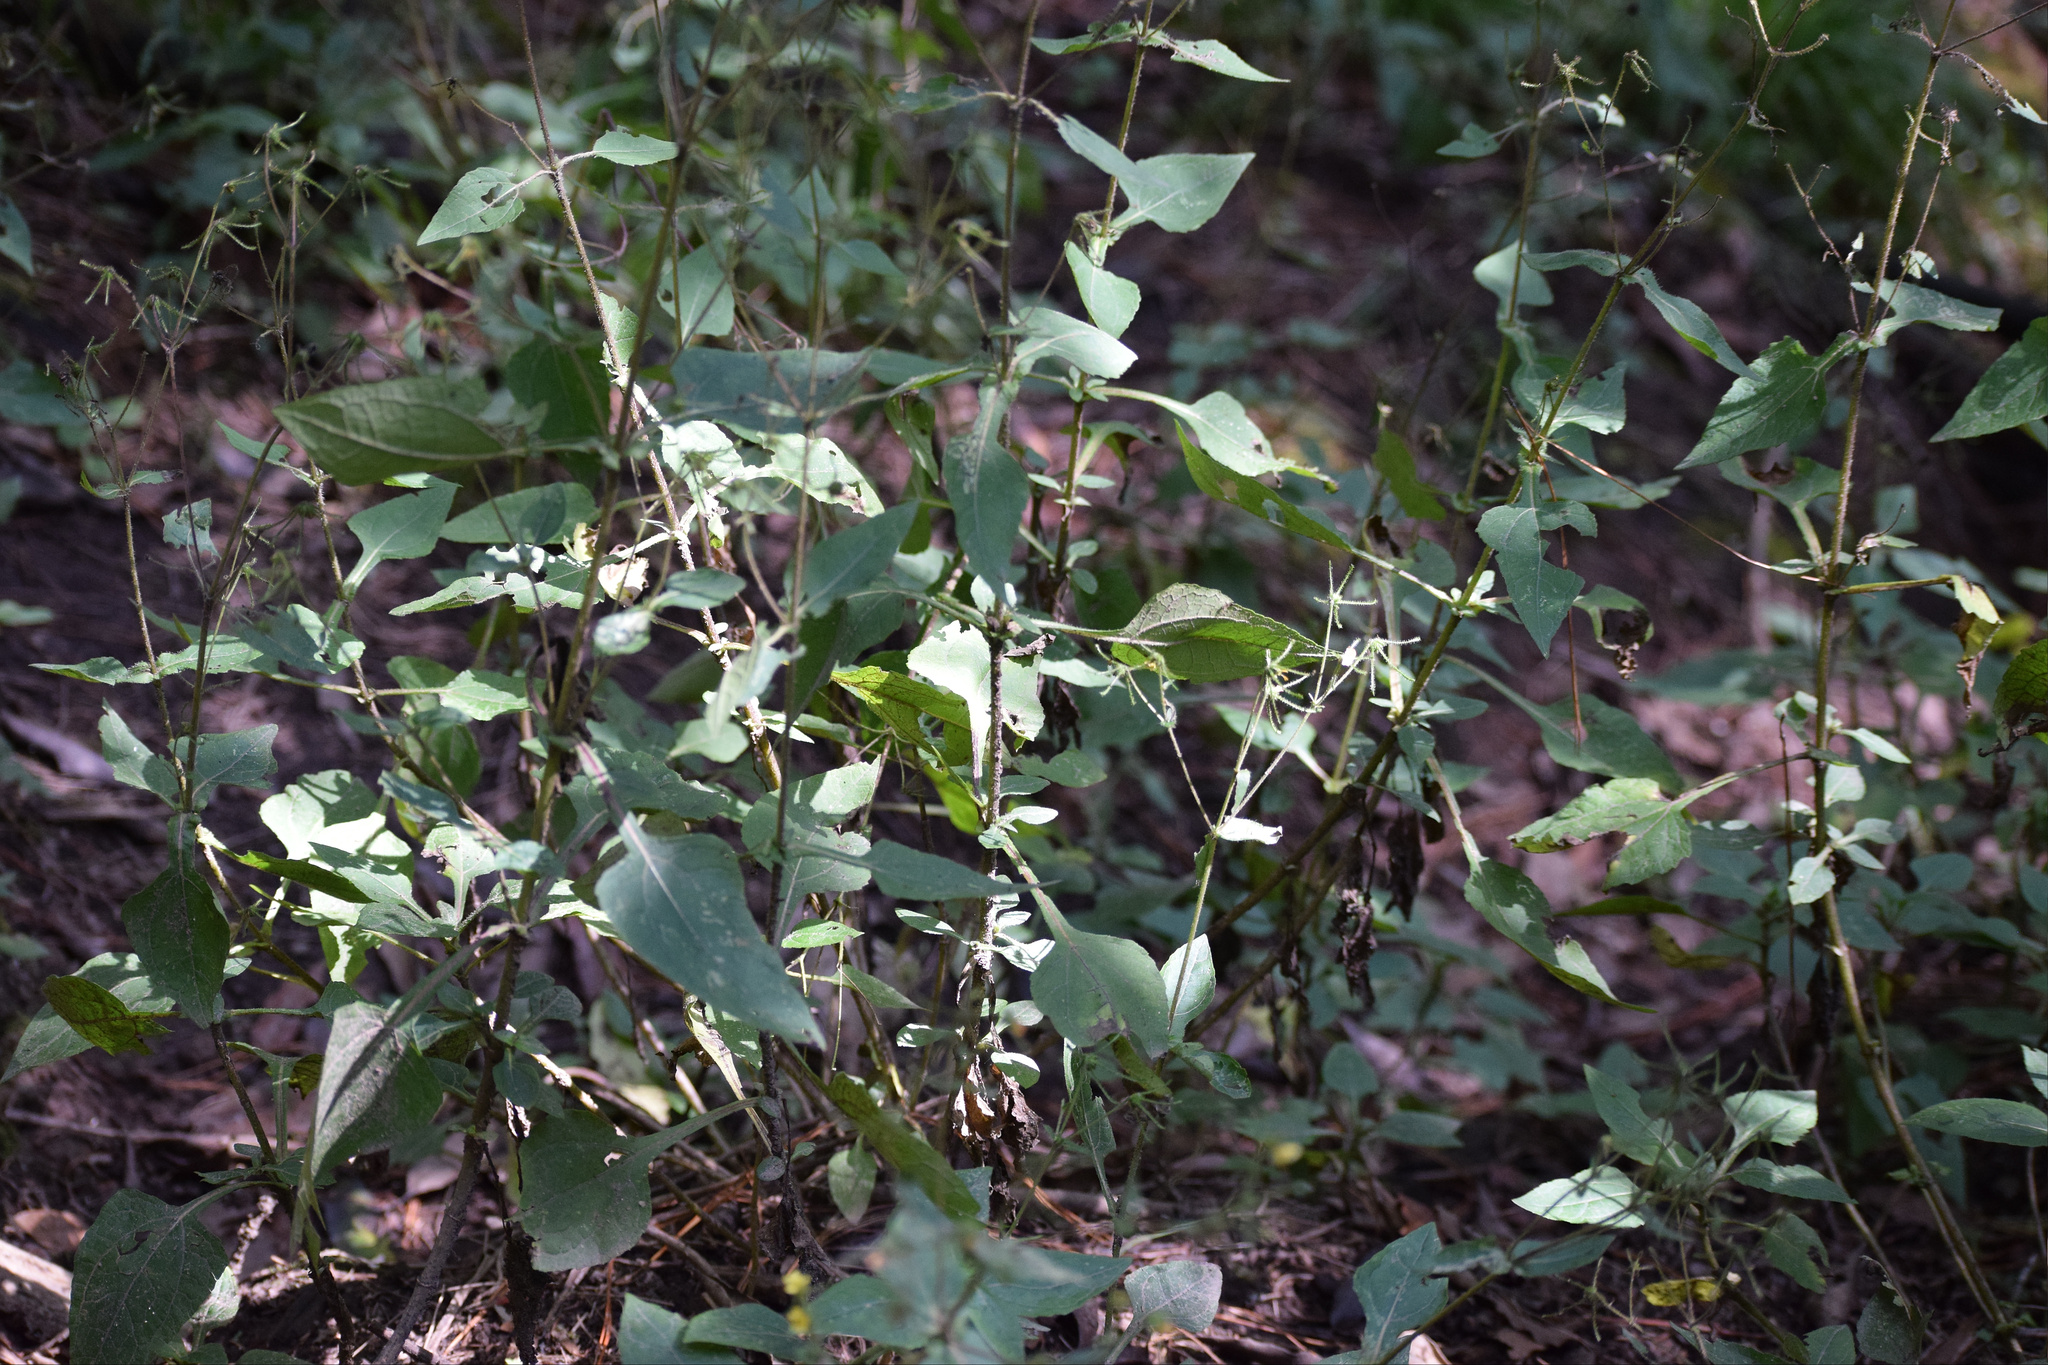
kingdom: Plantae
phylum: Tracheophyta
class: Magnoliopsida
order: Asterales
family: Asteraceae
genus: Sigesbeckia
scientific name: Sigesbeckia jorullensis
